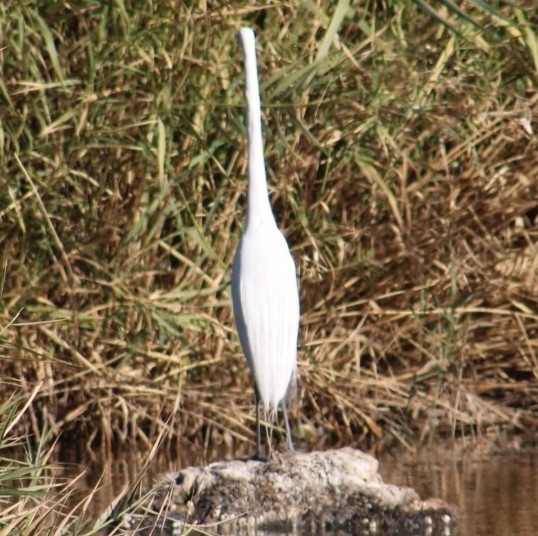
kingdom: Animalia
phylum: Chordata
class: Aves
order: Pelecaniformes
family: Ardeidae
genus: Ardea
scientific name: Ardea alba
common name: Great egret
